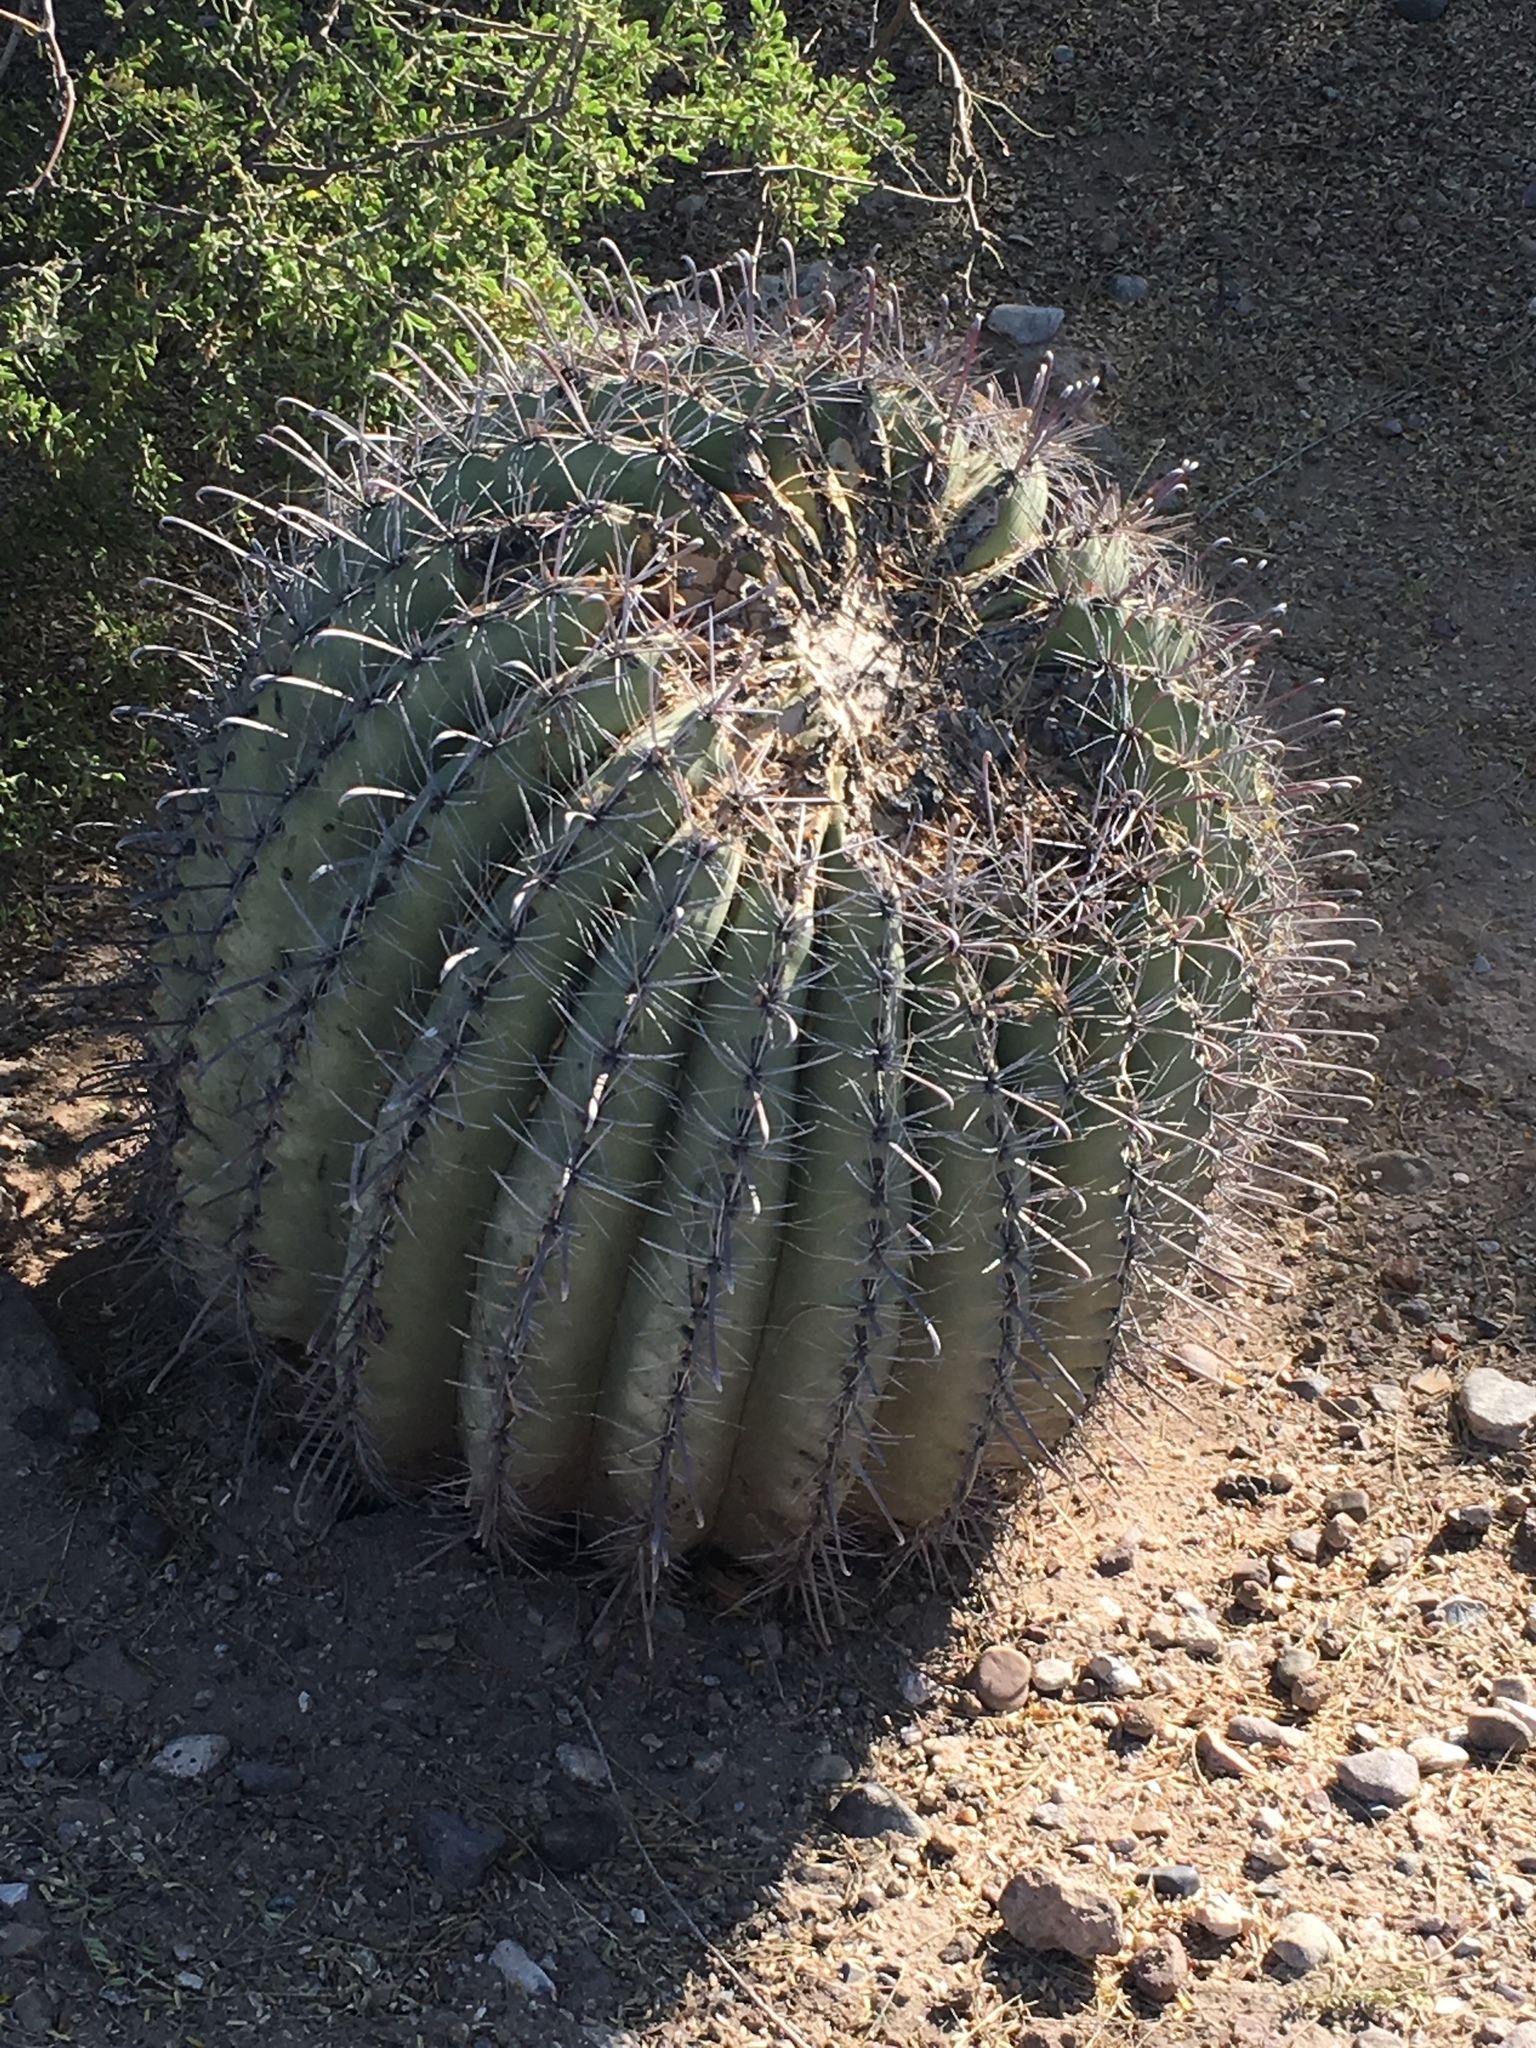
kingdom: Plantae
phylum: Tracheophyta
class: Magnoliopsida
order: Caryophyllales
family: Cactaceae
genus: Ferocactus
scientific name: Ferocactus wislizeni
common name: Candy barrel cactus
